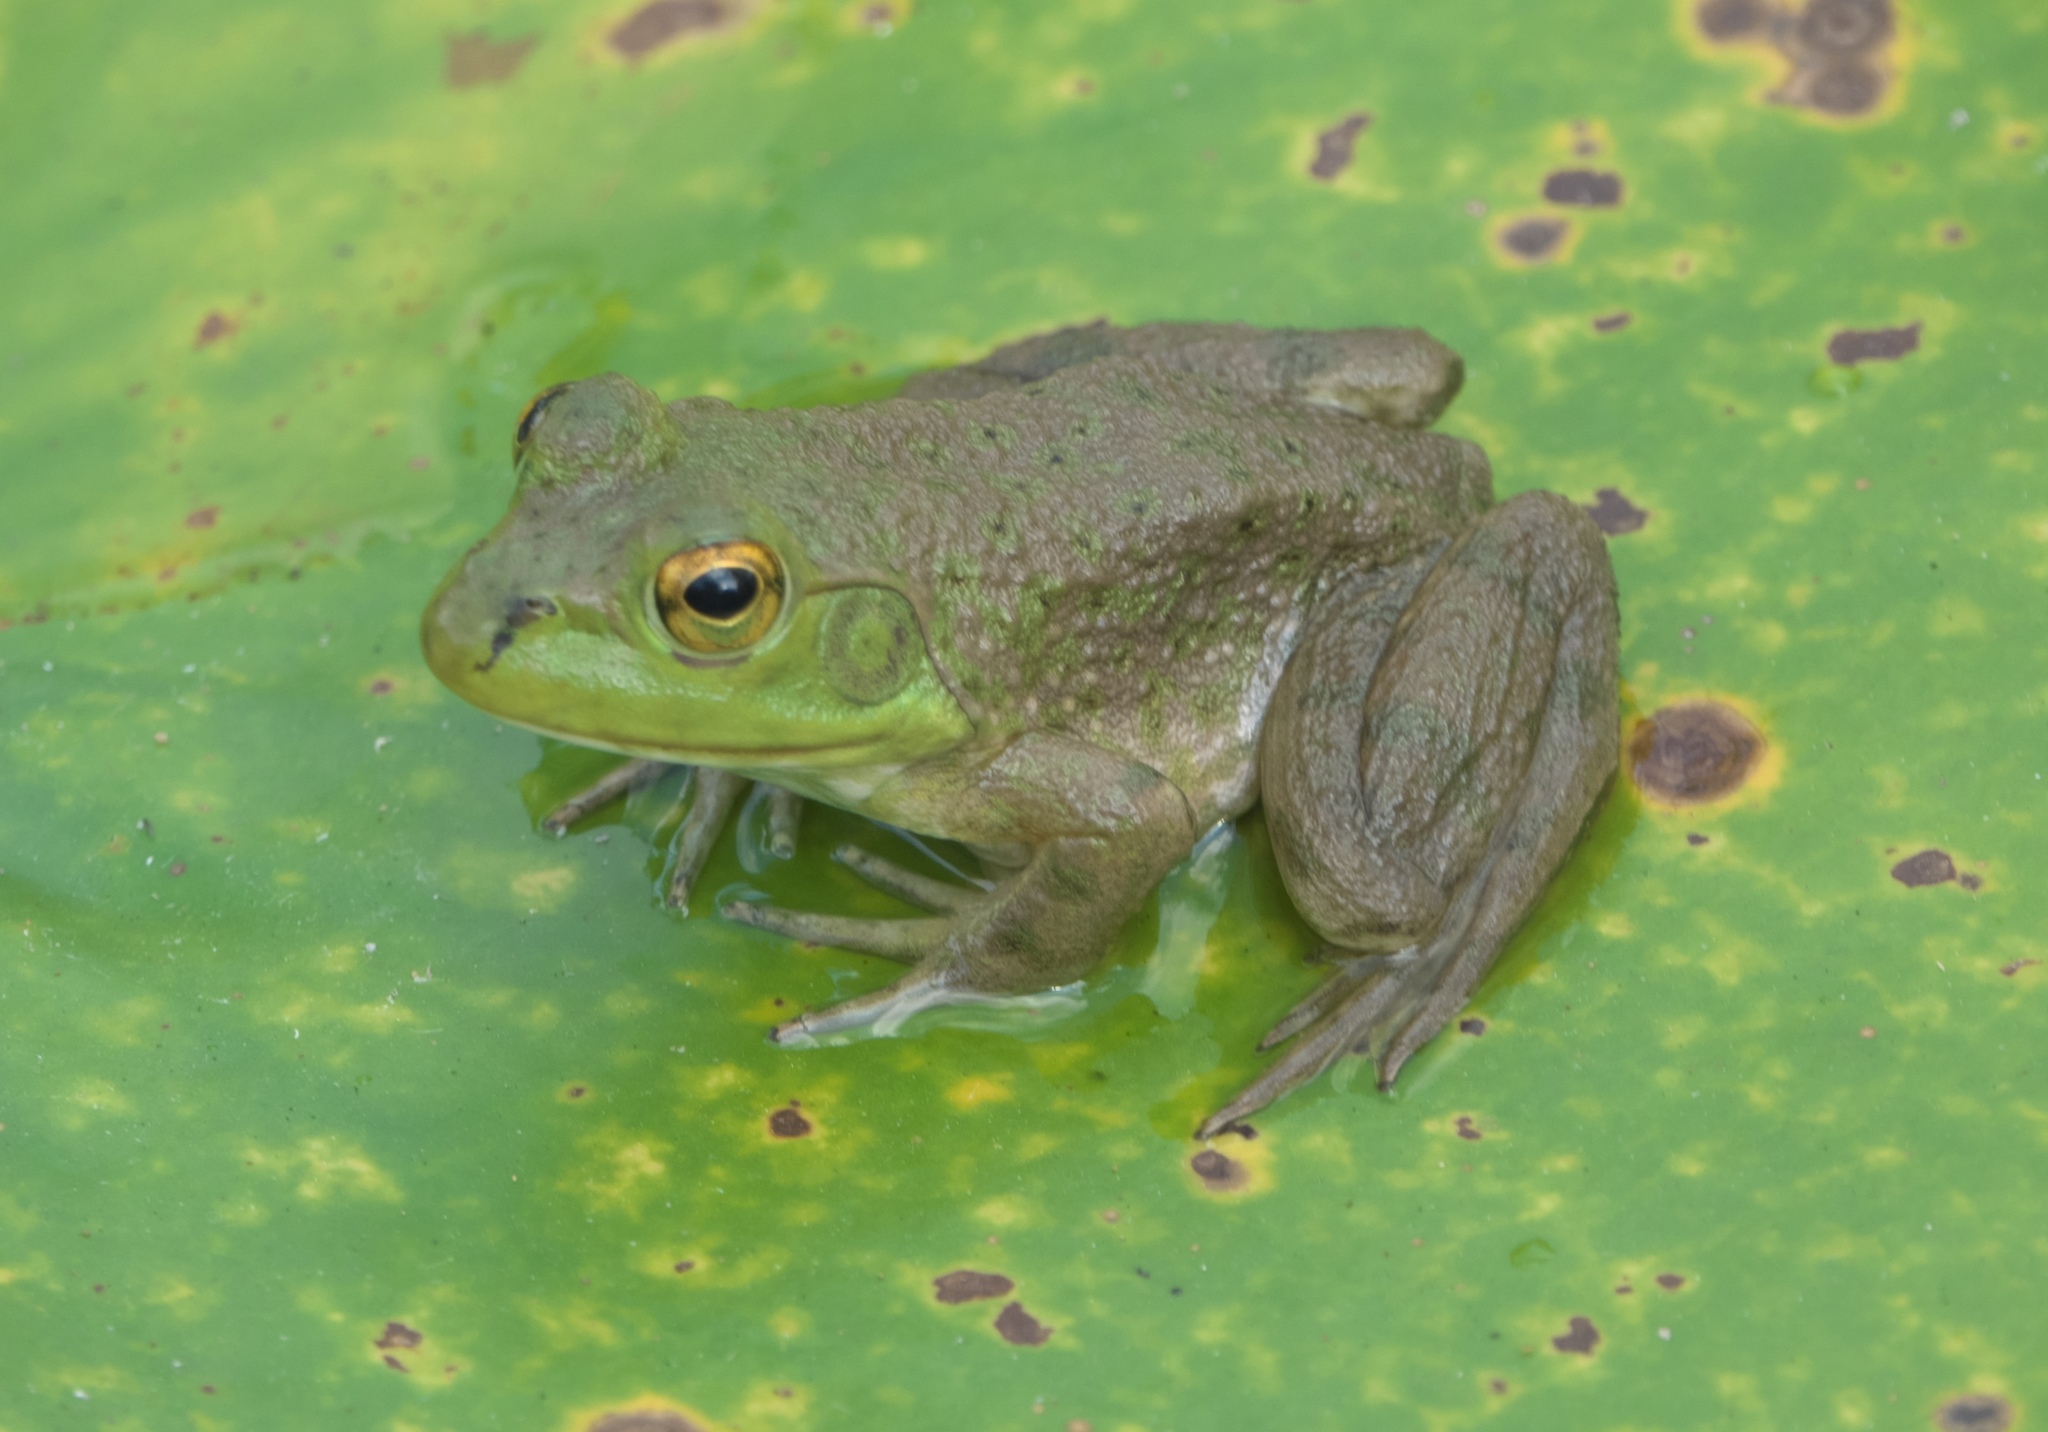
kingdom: Animalia
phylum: Chordata
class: Amphibia
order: Anura
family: Ranidae
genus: Lithobates
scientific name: Lithobates catesbeianus
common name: American bullfrog
